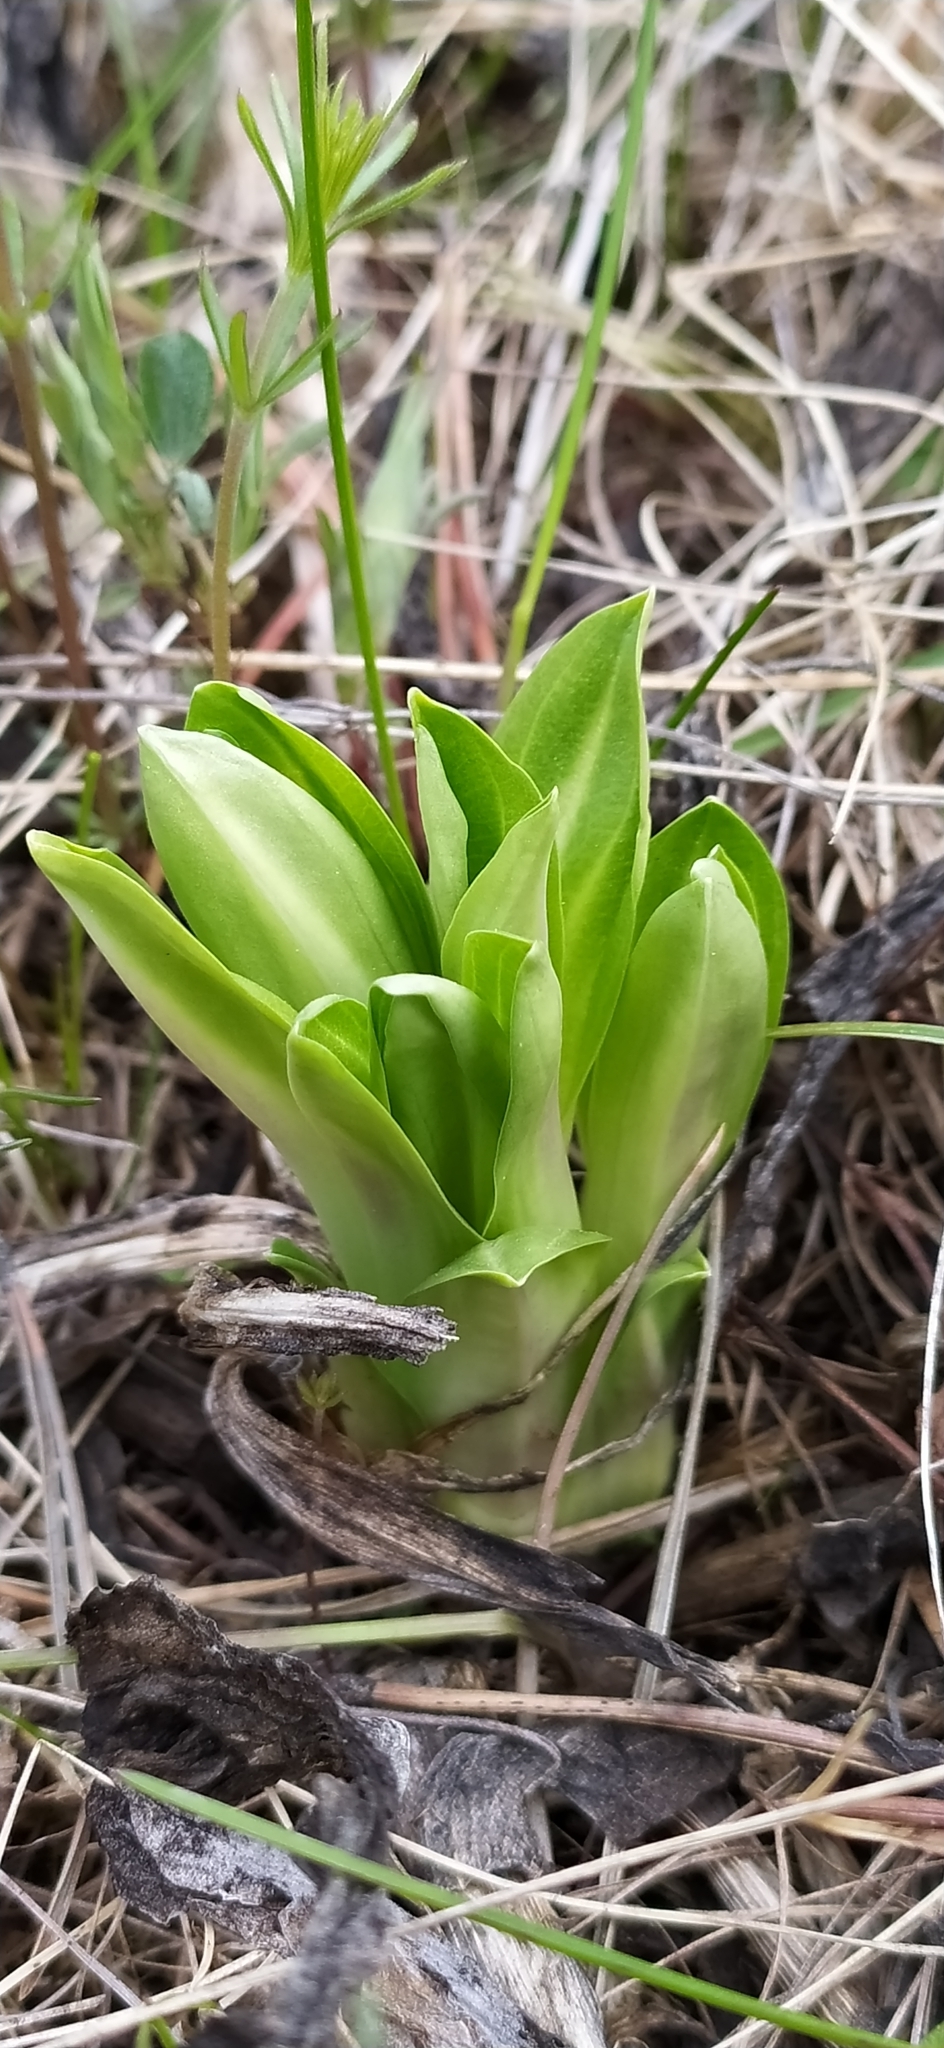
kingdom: Plantae
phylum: Tracheophyta
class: Magnoliopsida
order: Gentianales
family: Gentianaceae
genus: Gentiana
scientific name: Gentiana cruciata
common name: Cross gentian
